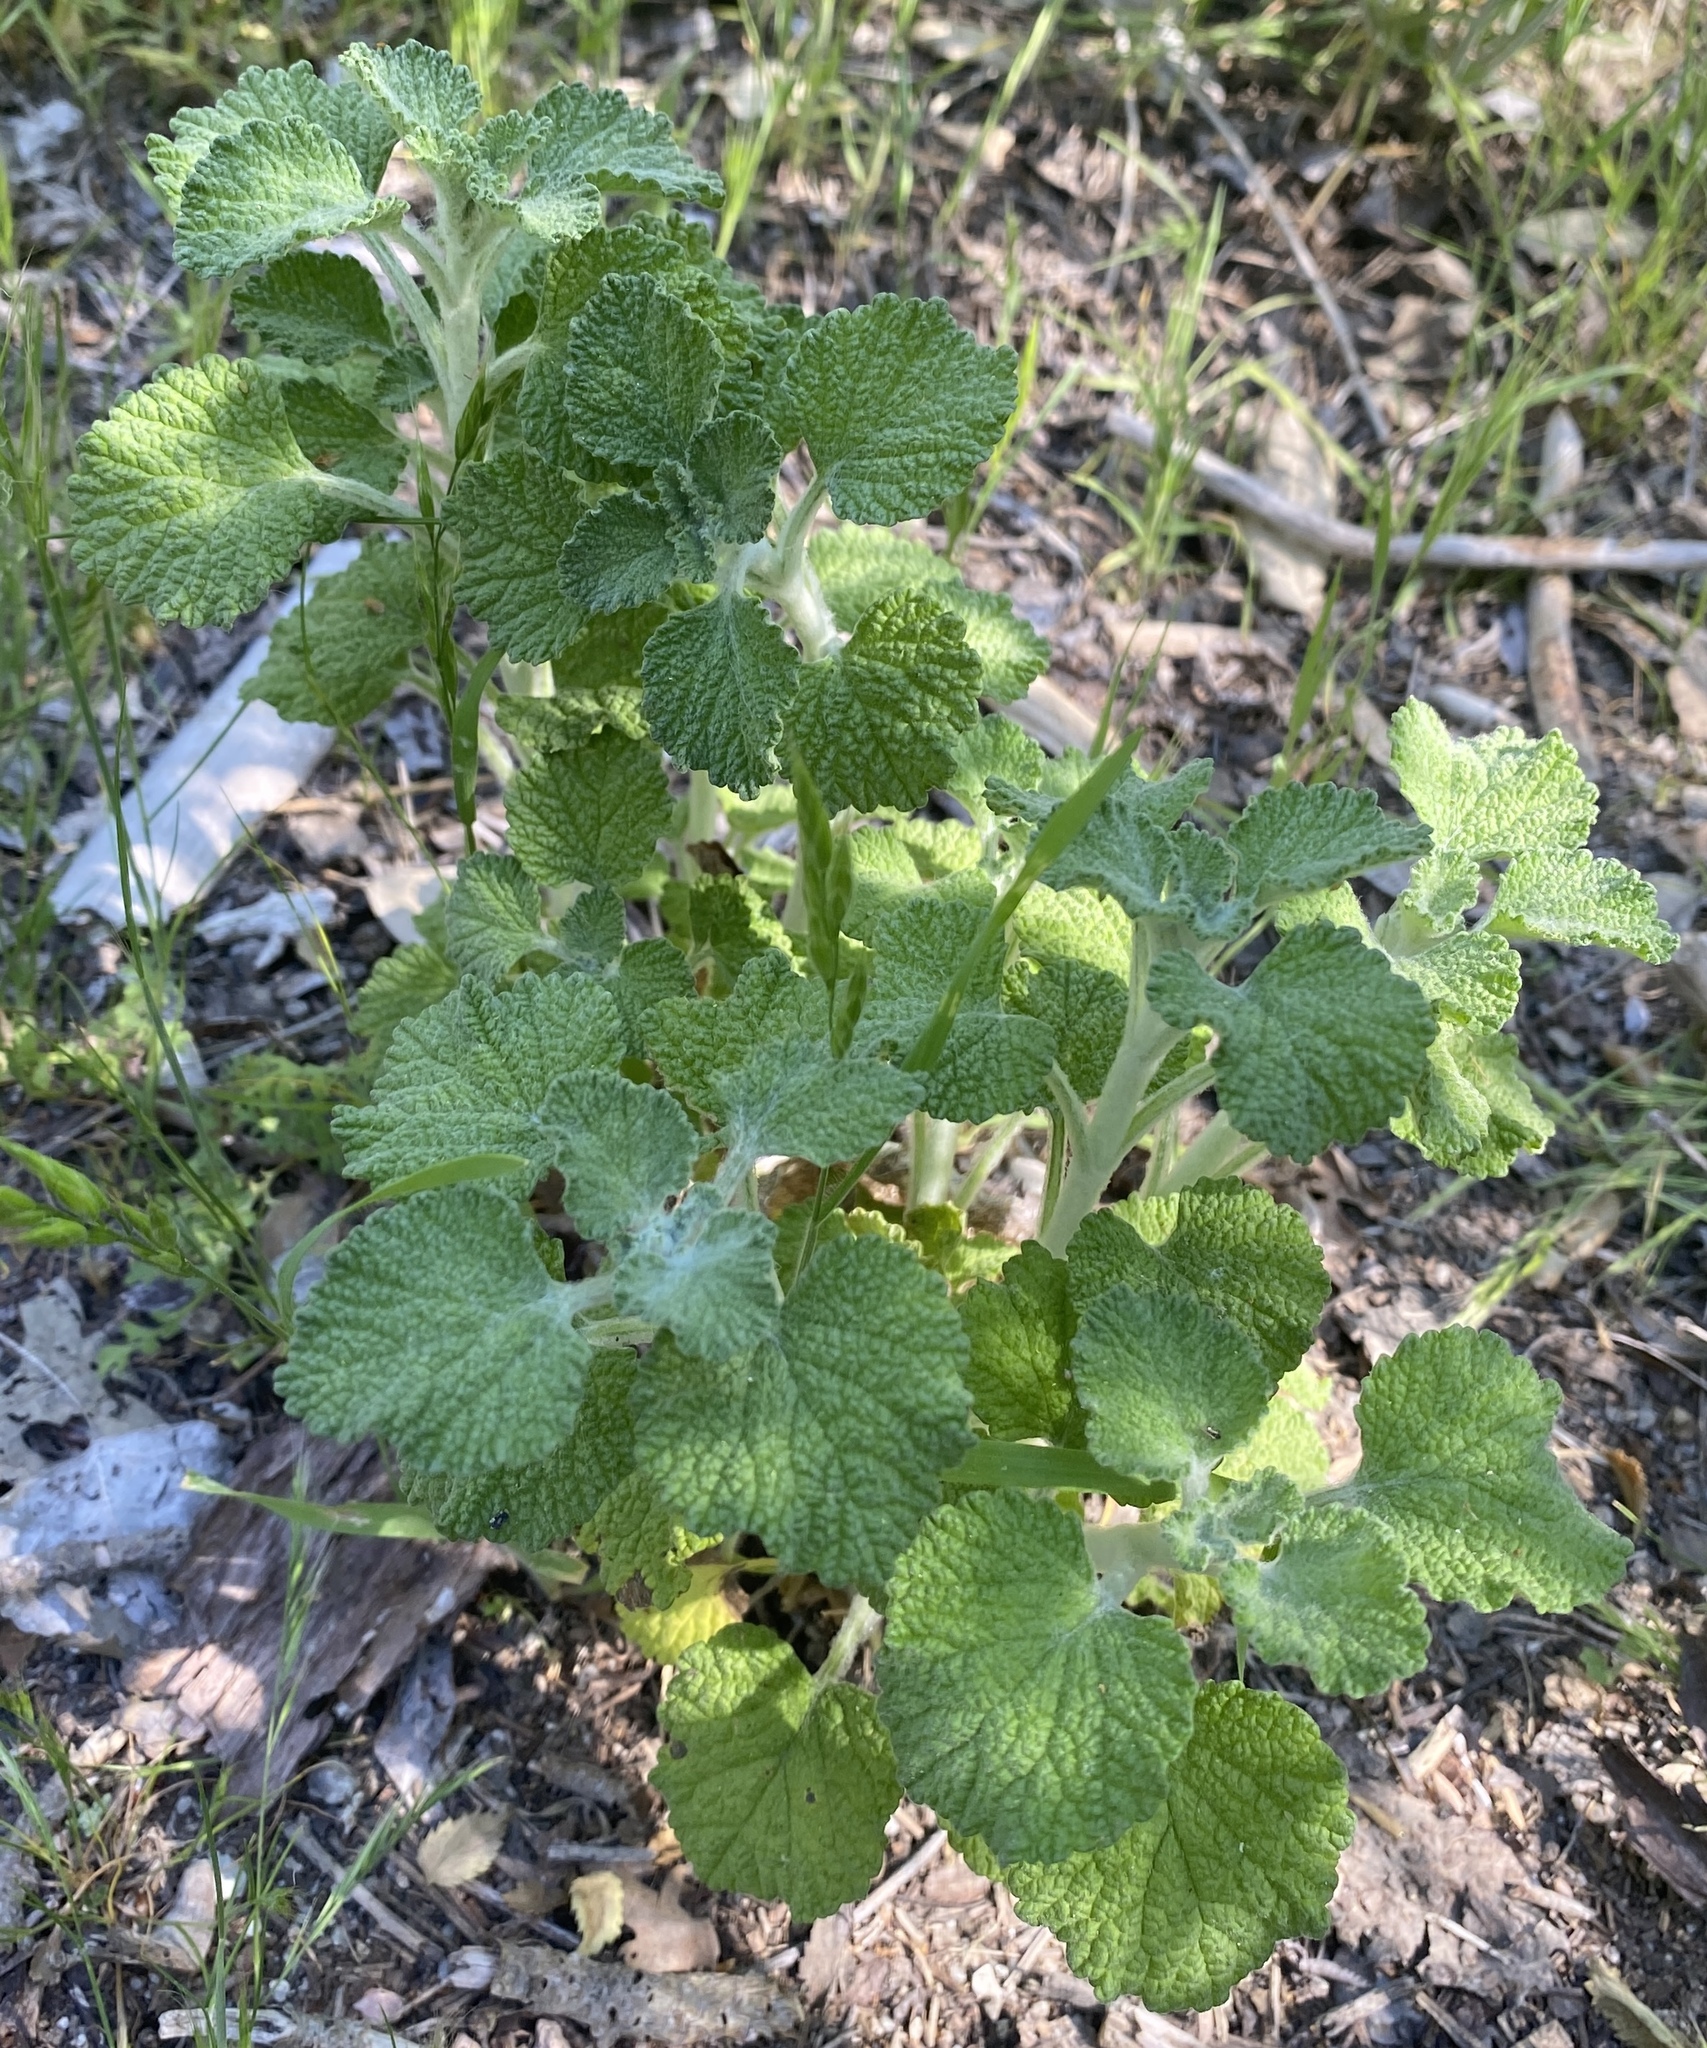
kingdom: Plantae
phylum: Tracheophyta
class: Magnoliopsida
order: Lamiales
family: Lamiaceae
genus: Marrubium
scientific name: Marrubium vulgare
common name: Horehound
